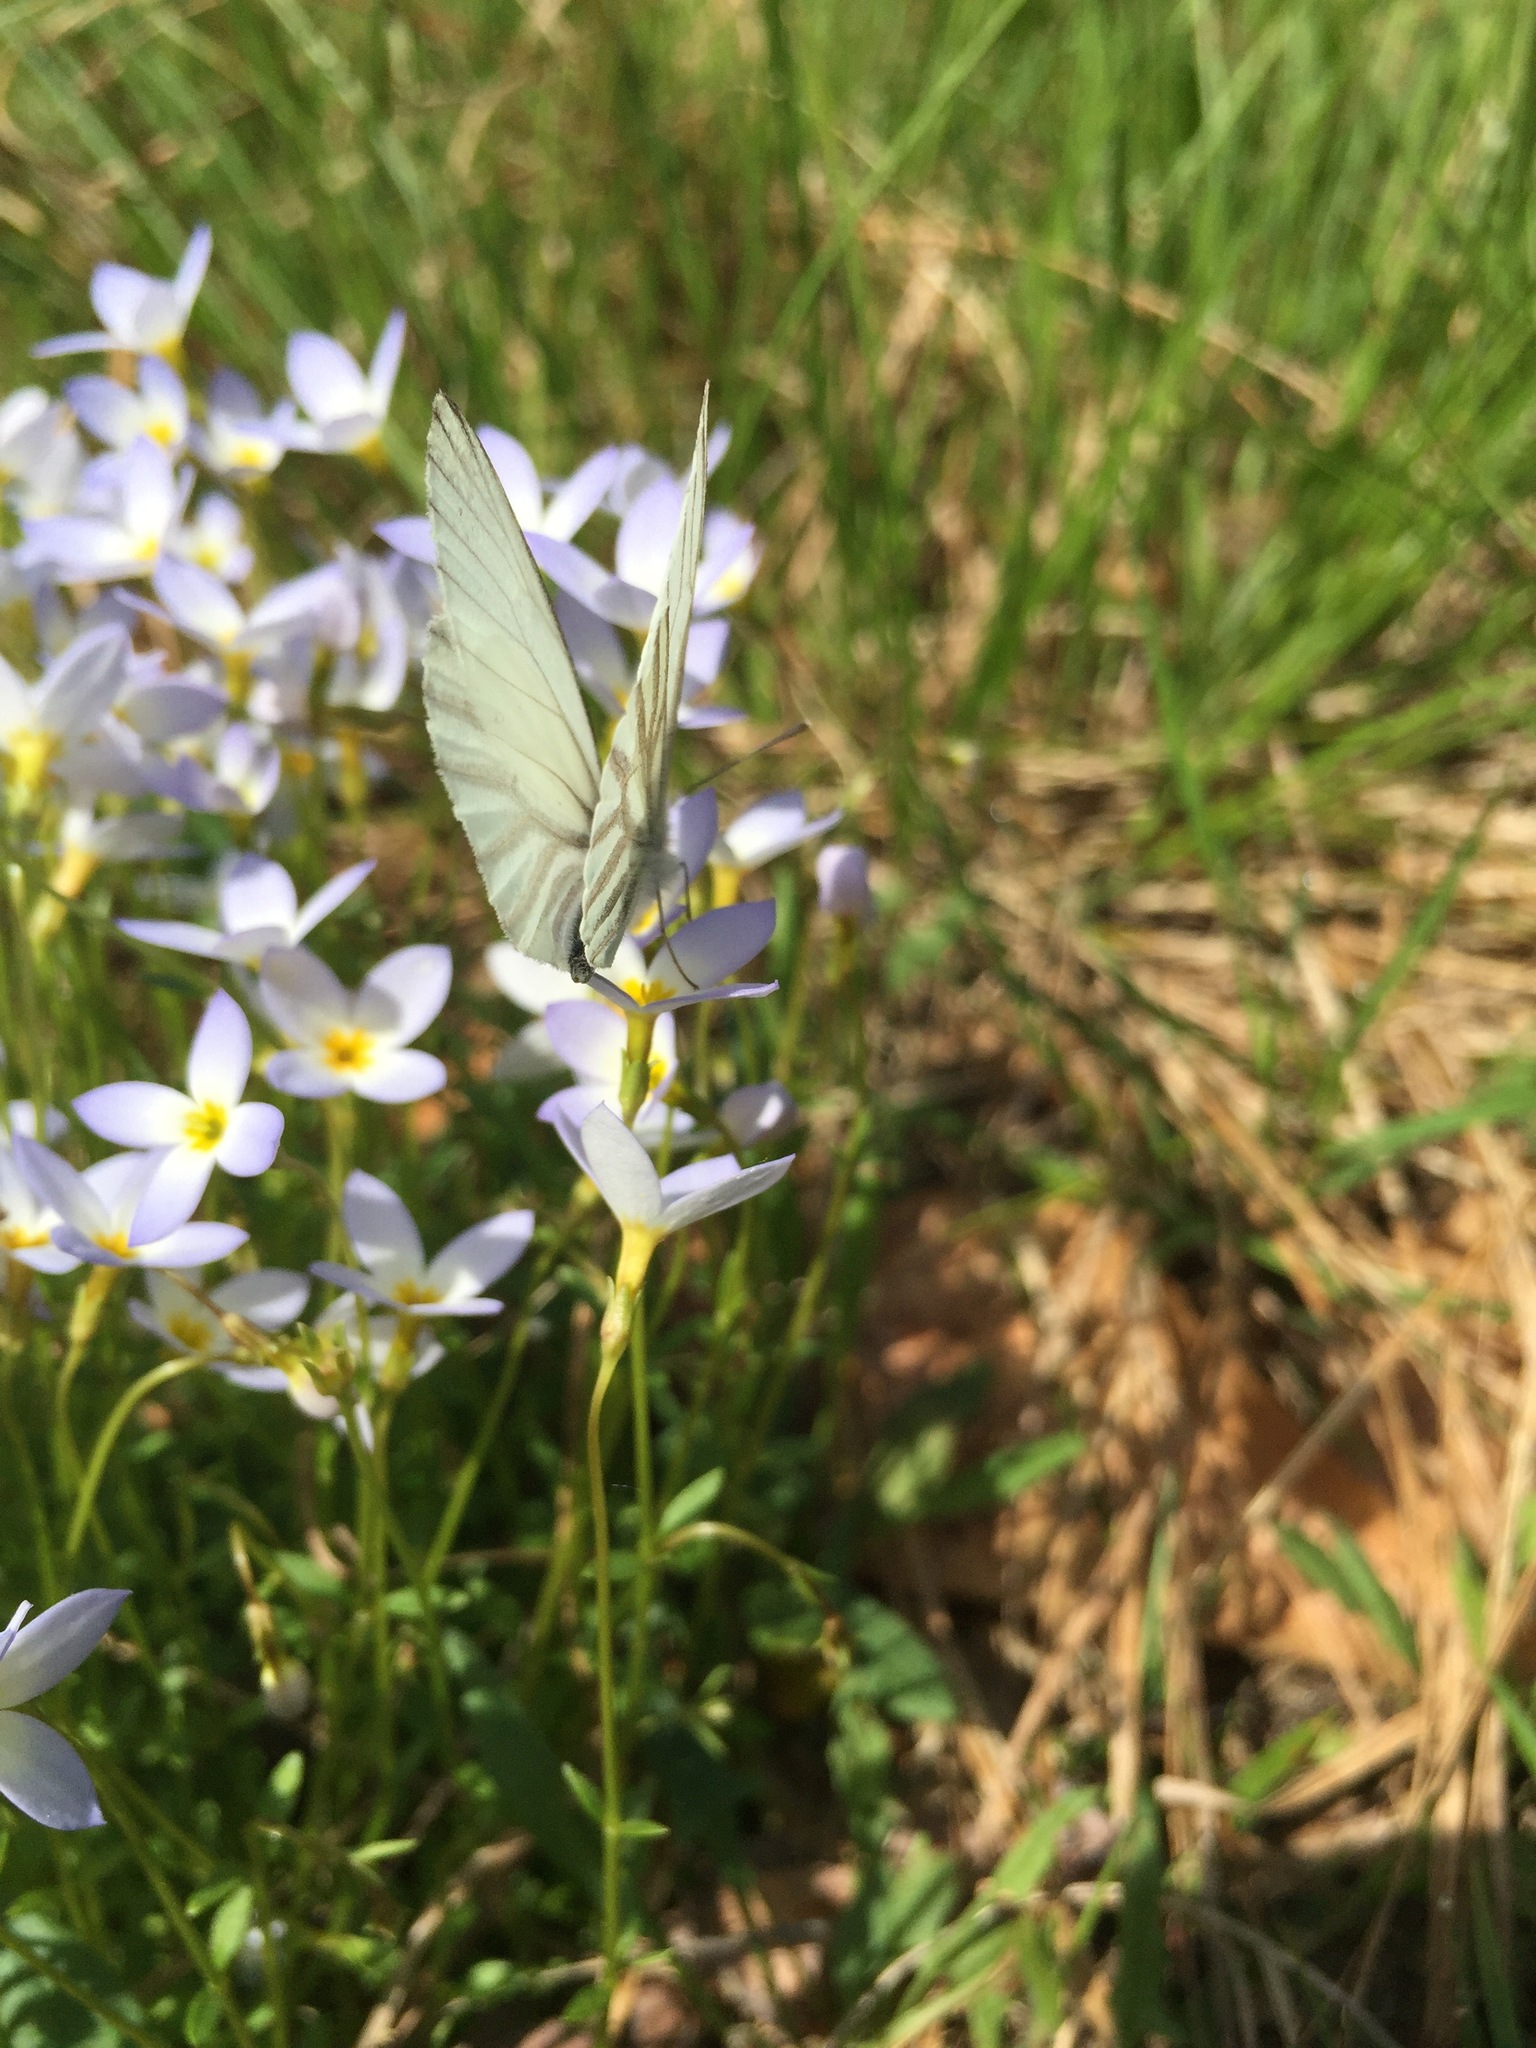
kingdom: Animalia
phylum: Arthropoda
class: Insecta
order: Lepidoptera
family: Pieridae
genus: Pieris
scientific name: Pieris oleracea
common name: Mustard white
